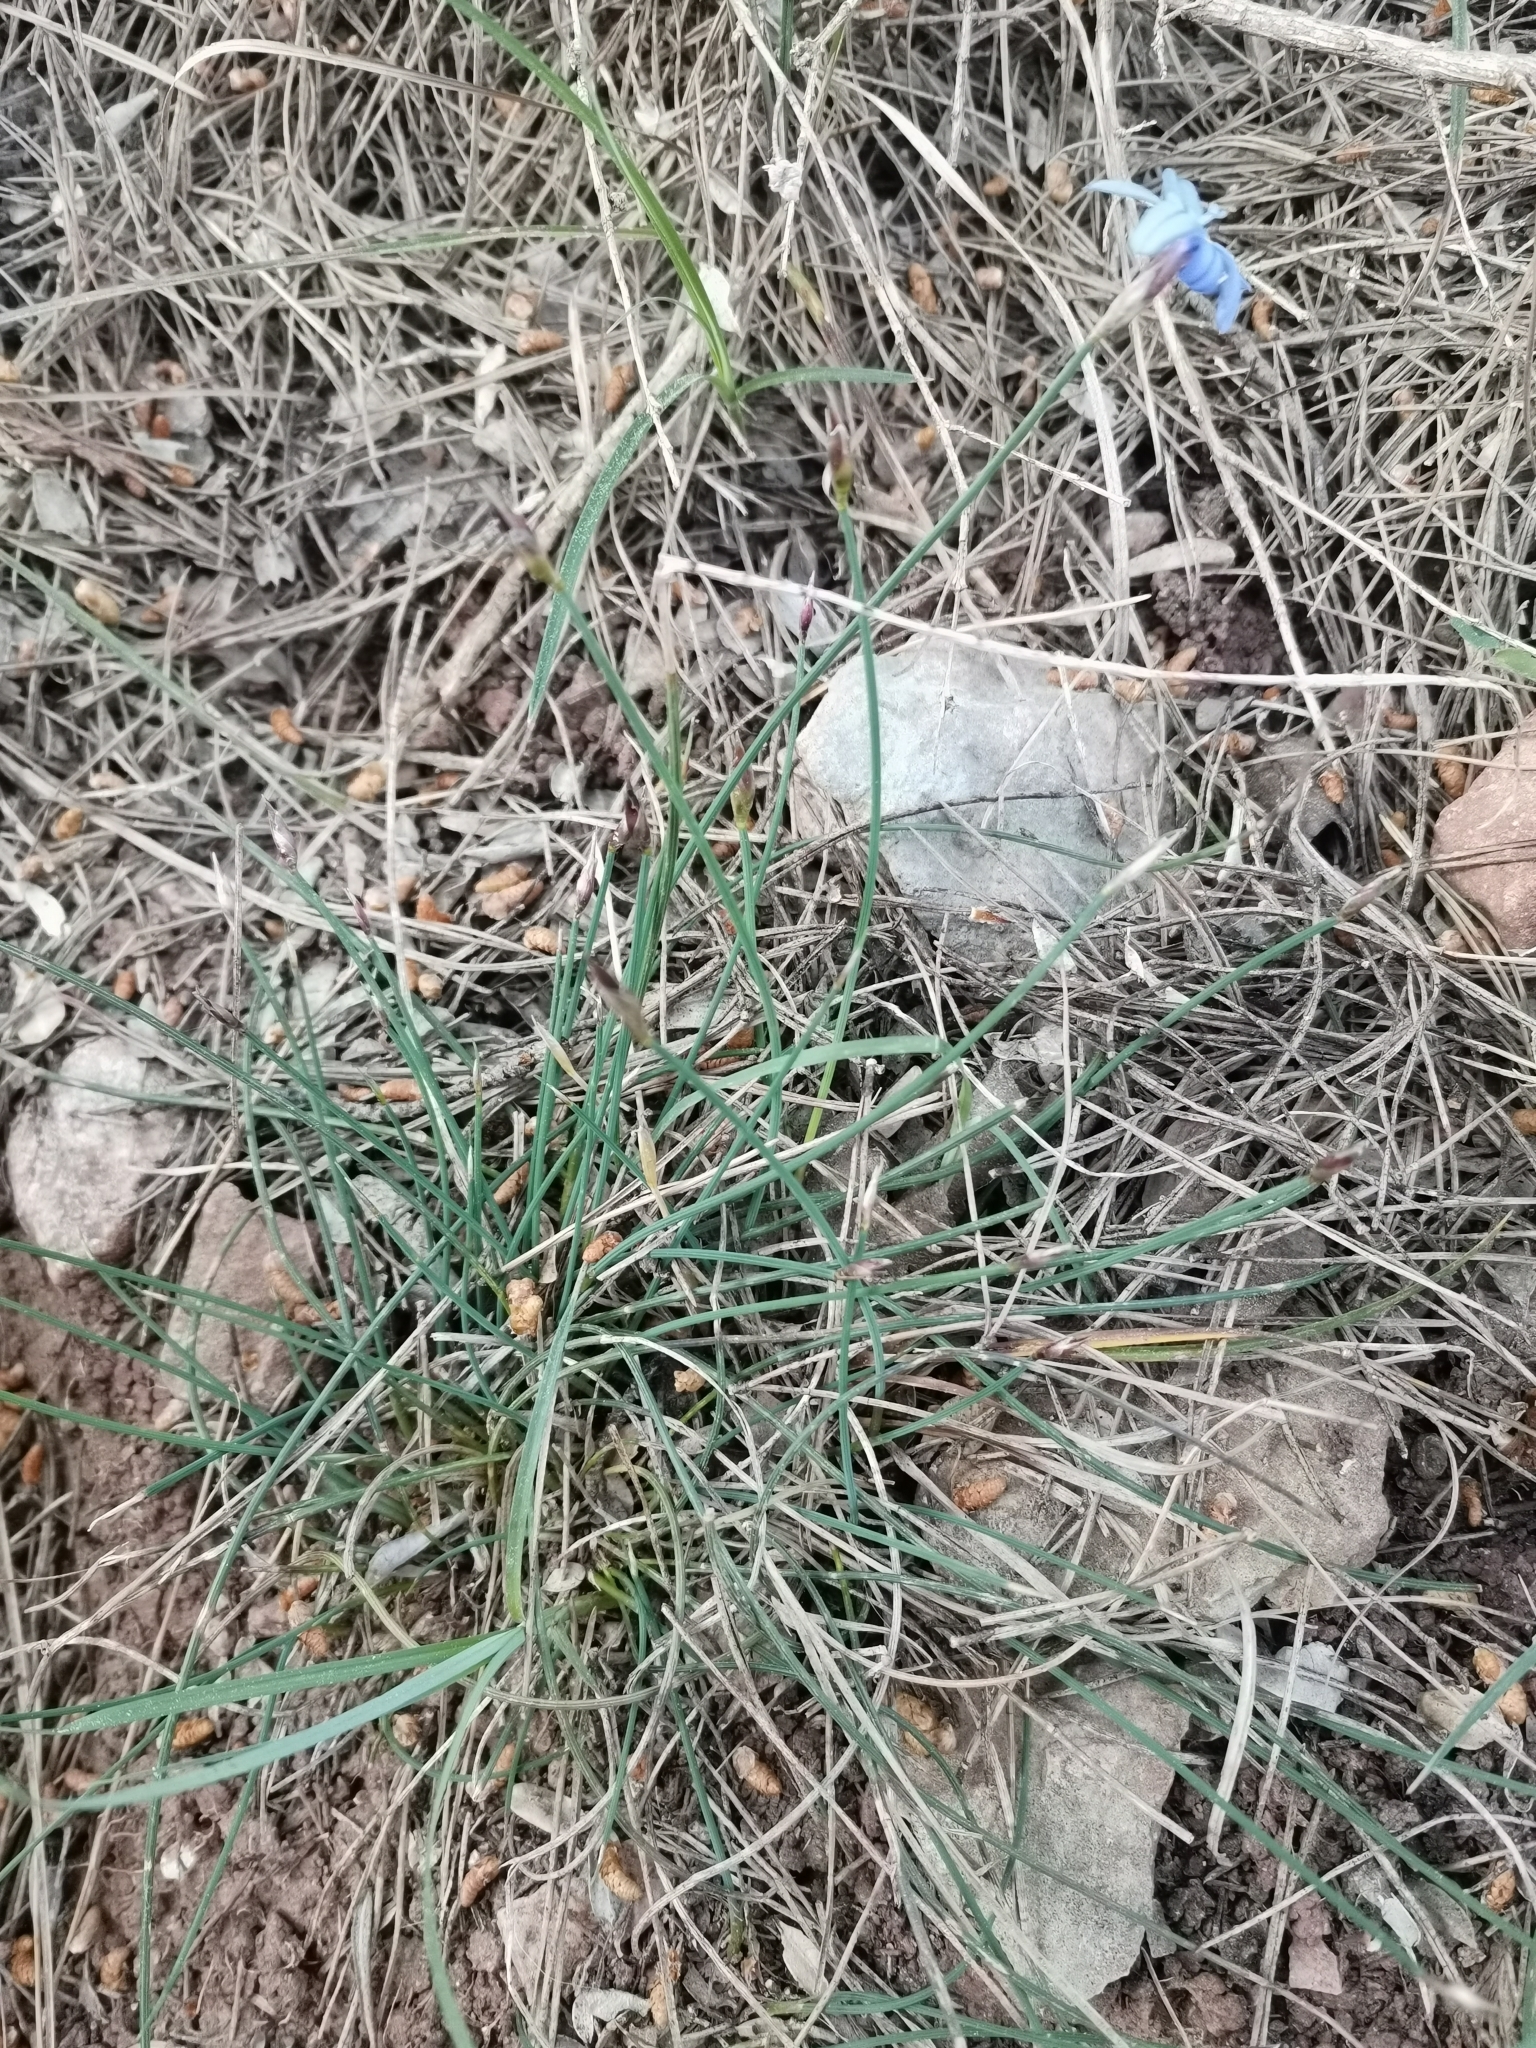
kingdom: Plantae
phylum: Tracheophyta
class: Liliopsida
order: Asparagales
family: Asparagaceae
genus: Aphyllanthes
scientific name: Aphyllanthes monspeliensis
